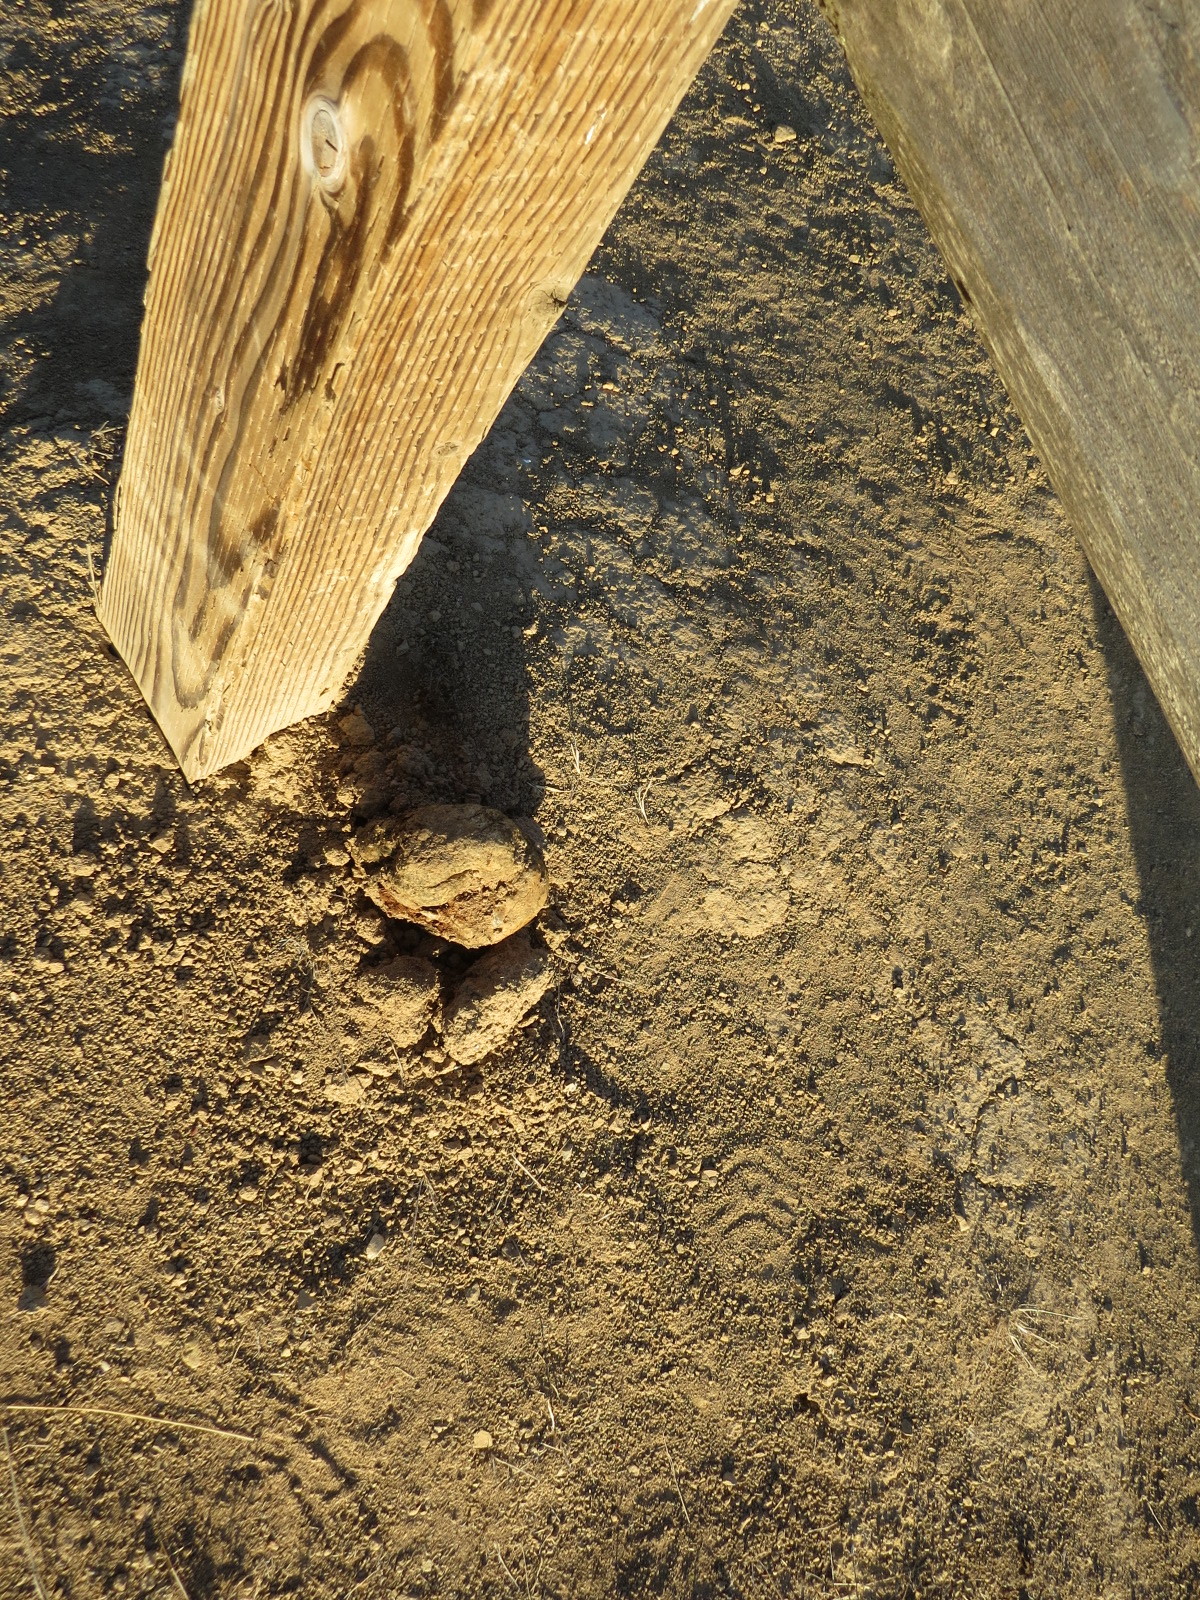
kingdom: Fungi
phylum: Basidiomycota
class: Agaricomycetes
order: Boletales
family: Sclerodermataceae
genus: Pisolithus
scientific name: Pisolithus tinctorius
